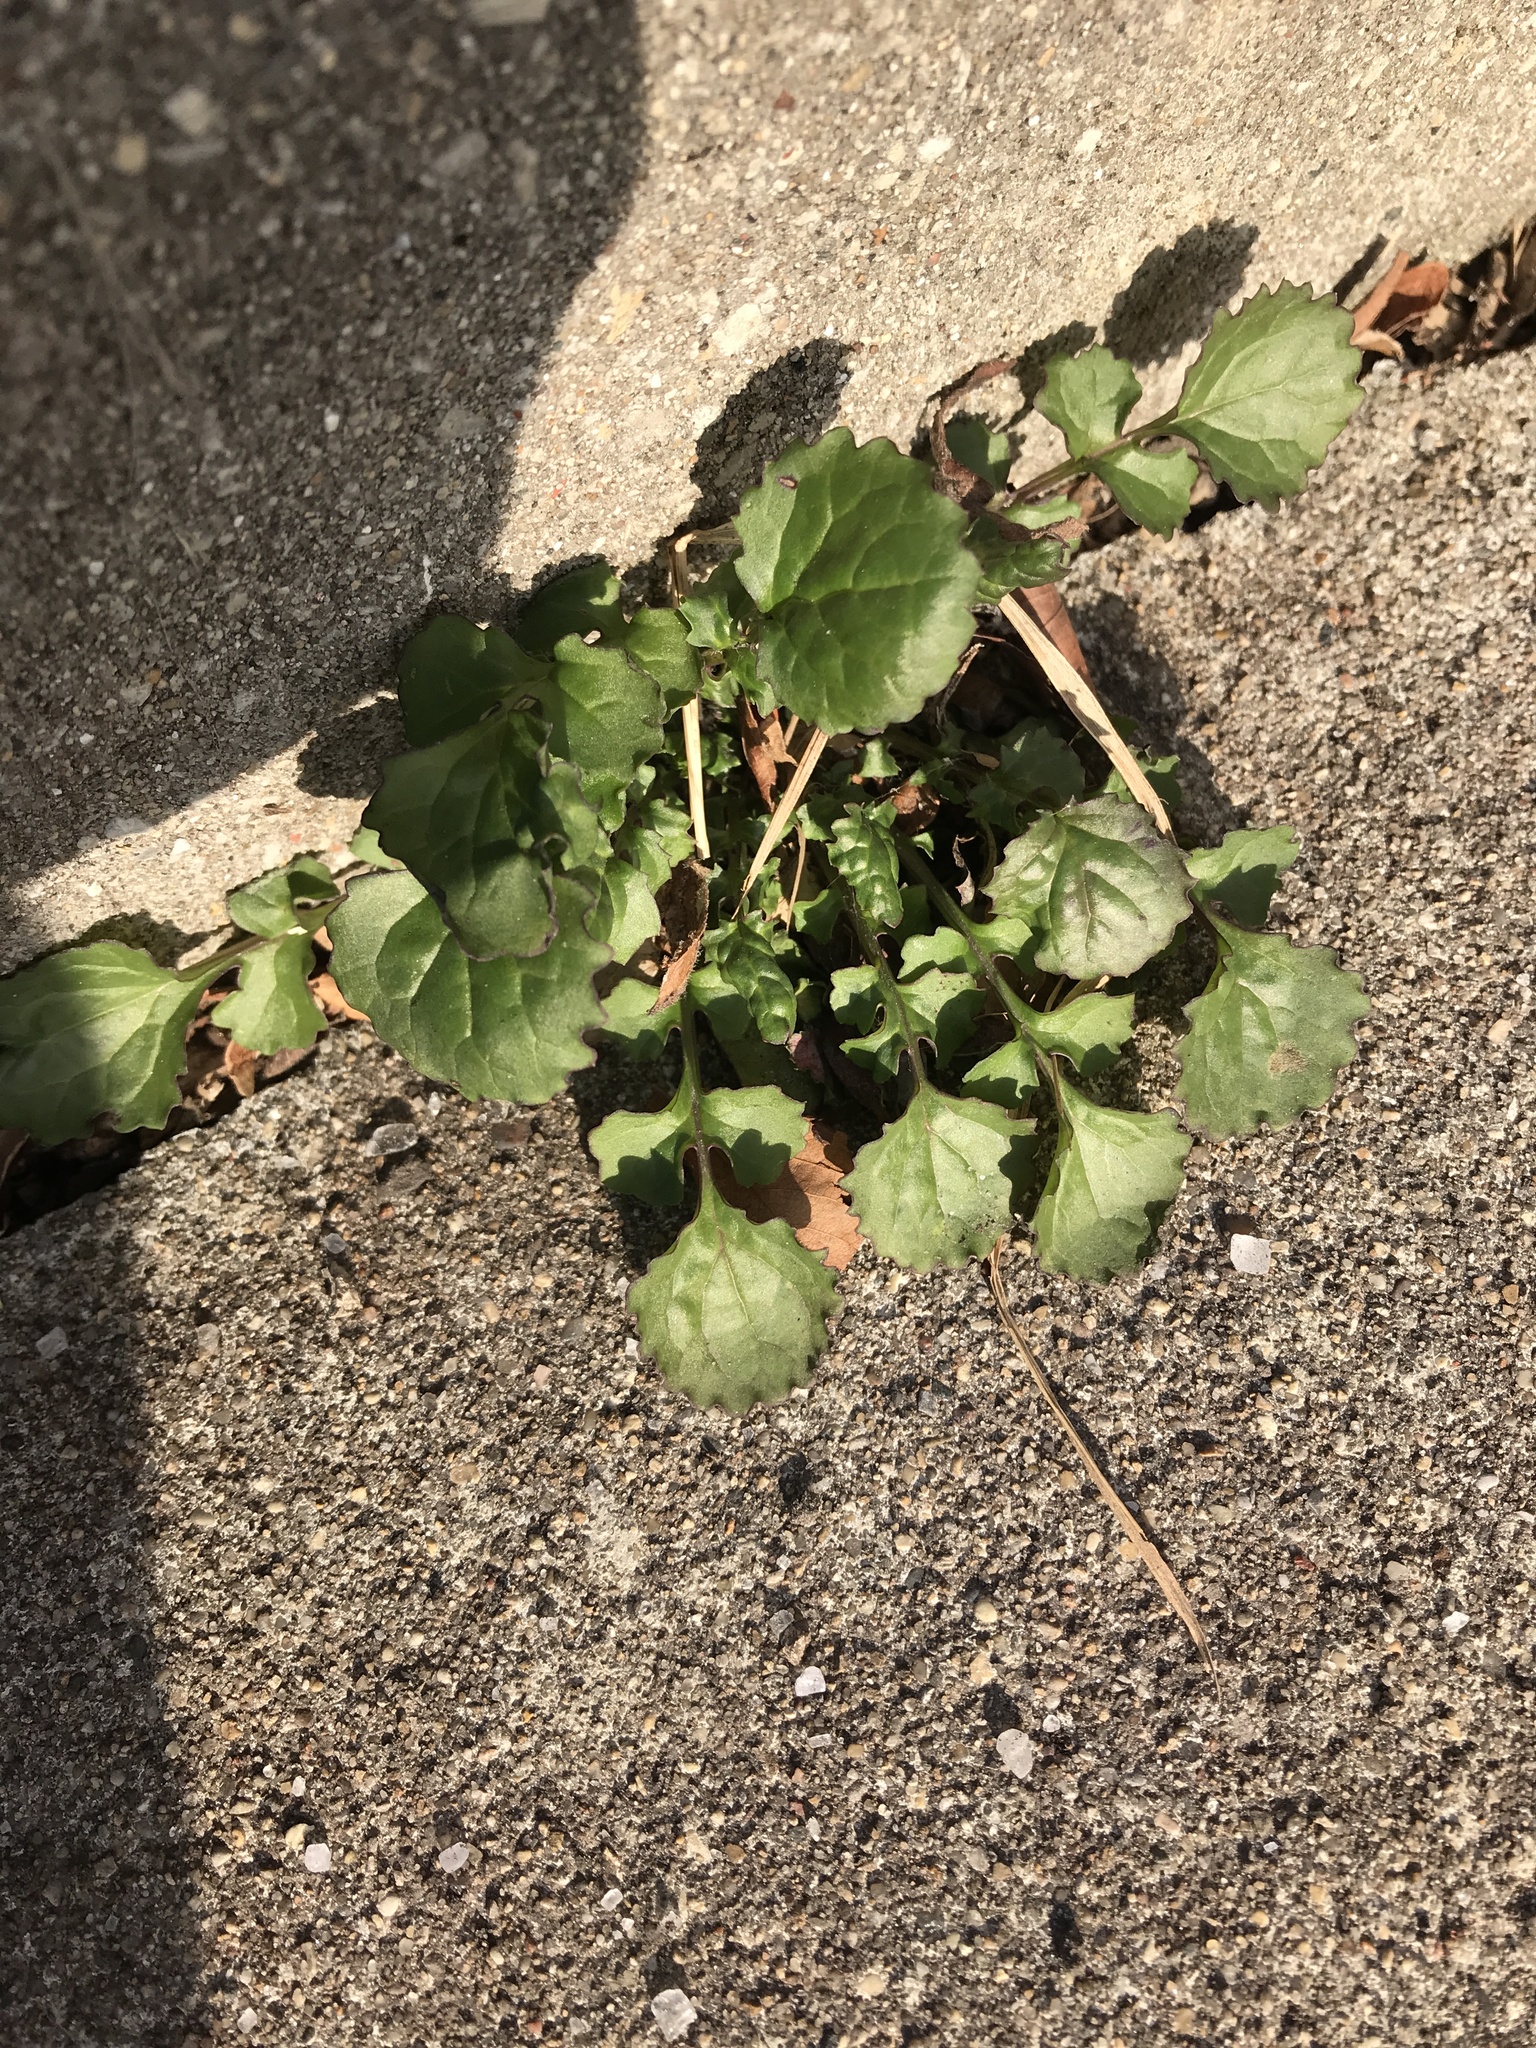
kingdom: Plantae
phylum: Tracheophyta
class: Magnoliopsida
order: Asterales
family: Asteraceae
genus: Packera
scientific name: Packera glabella
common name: Butterweed
